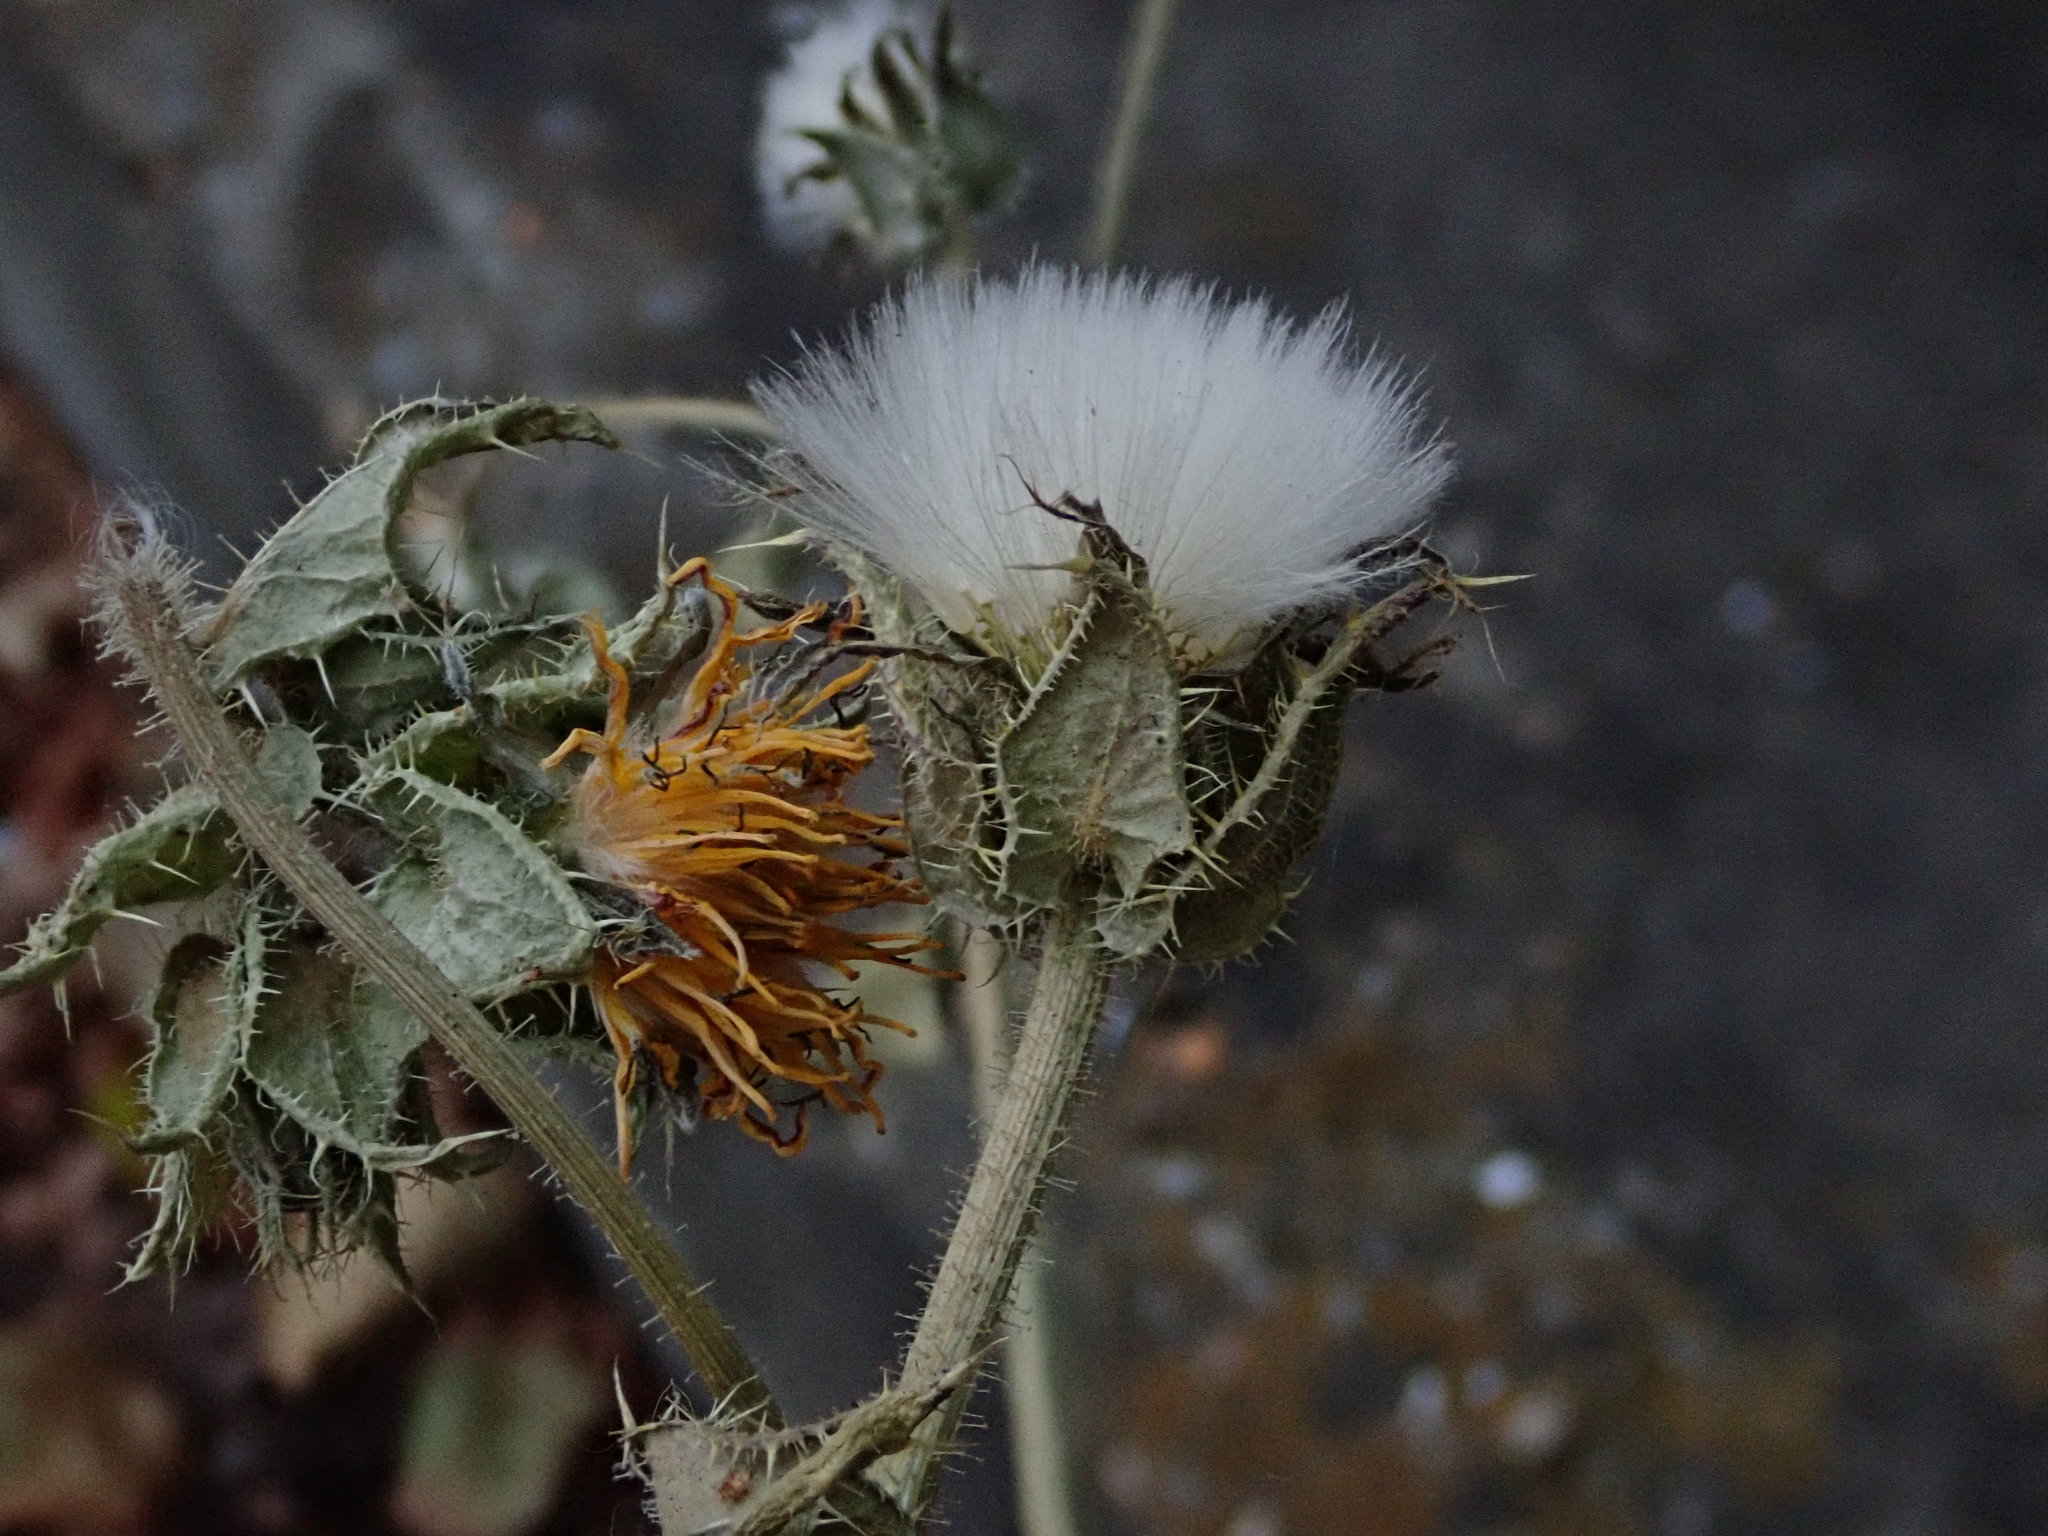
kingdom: Plantae
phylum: Tracheophyta
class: Magnoliopsida
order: Asterales
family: Asteraceae
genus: Helminthotheca
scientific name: Helminthotheca echioides
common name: Ox-tongue
